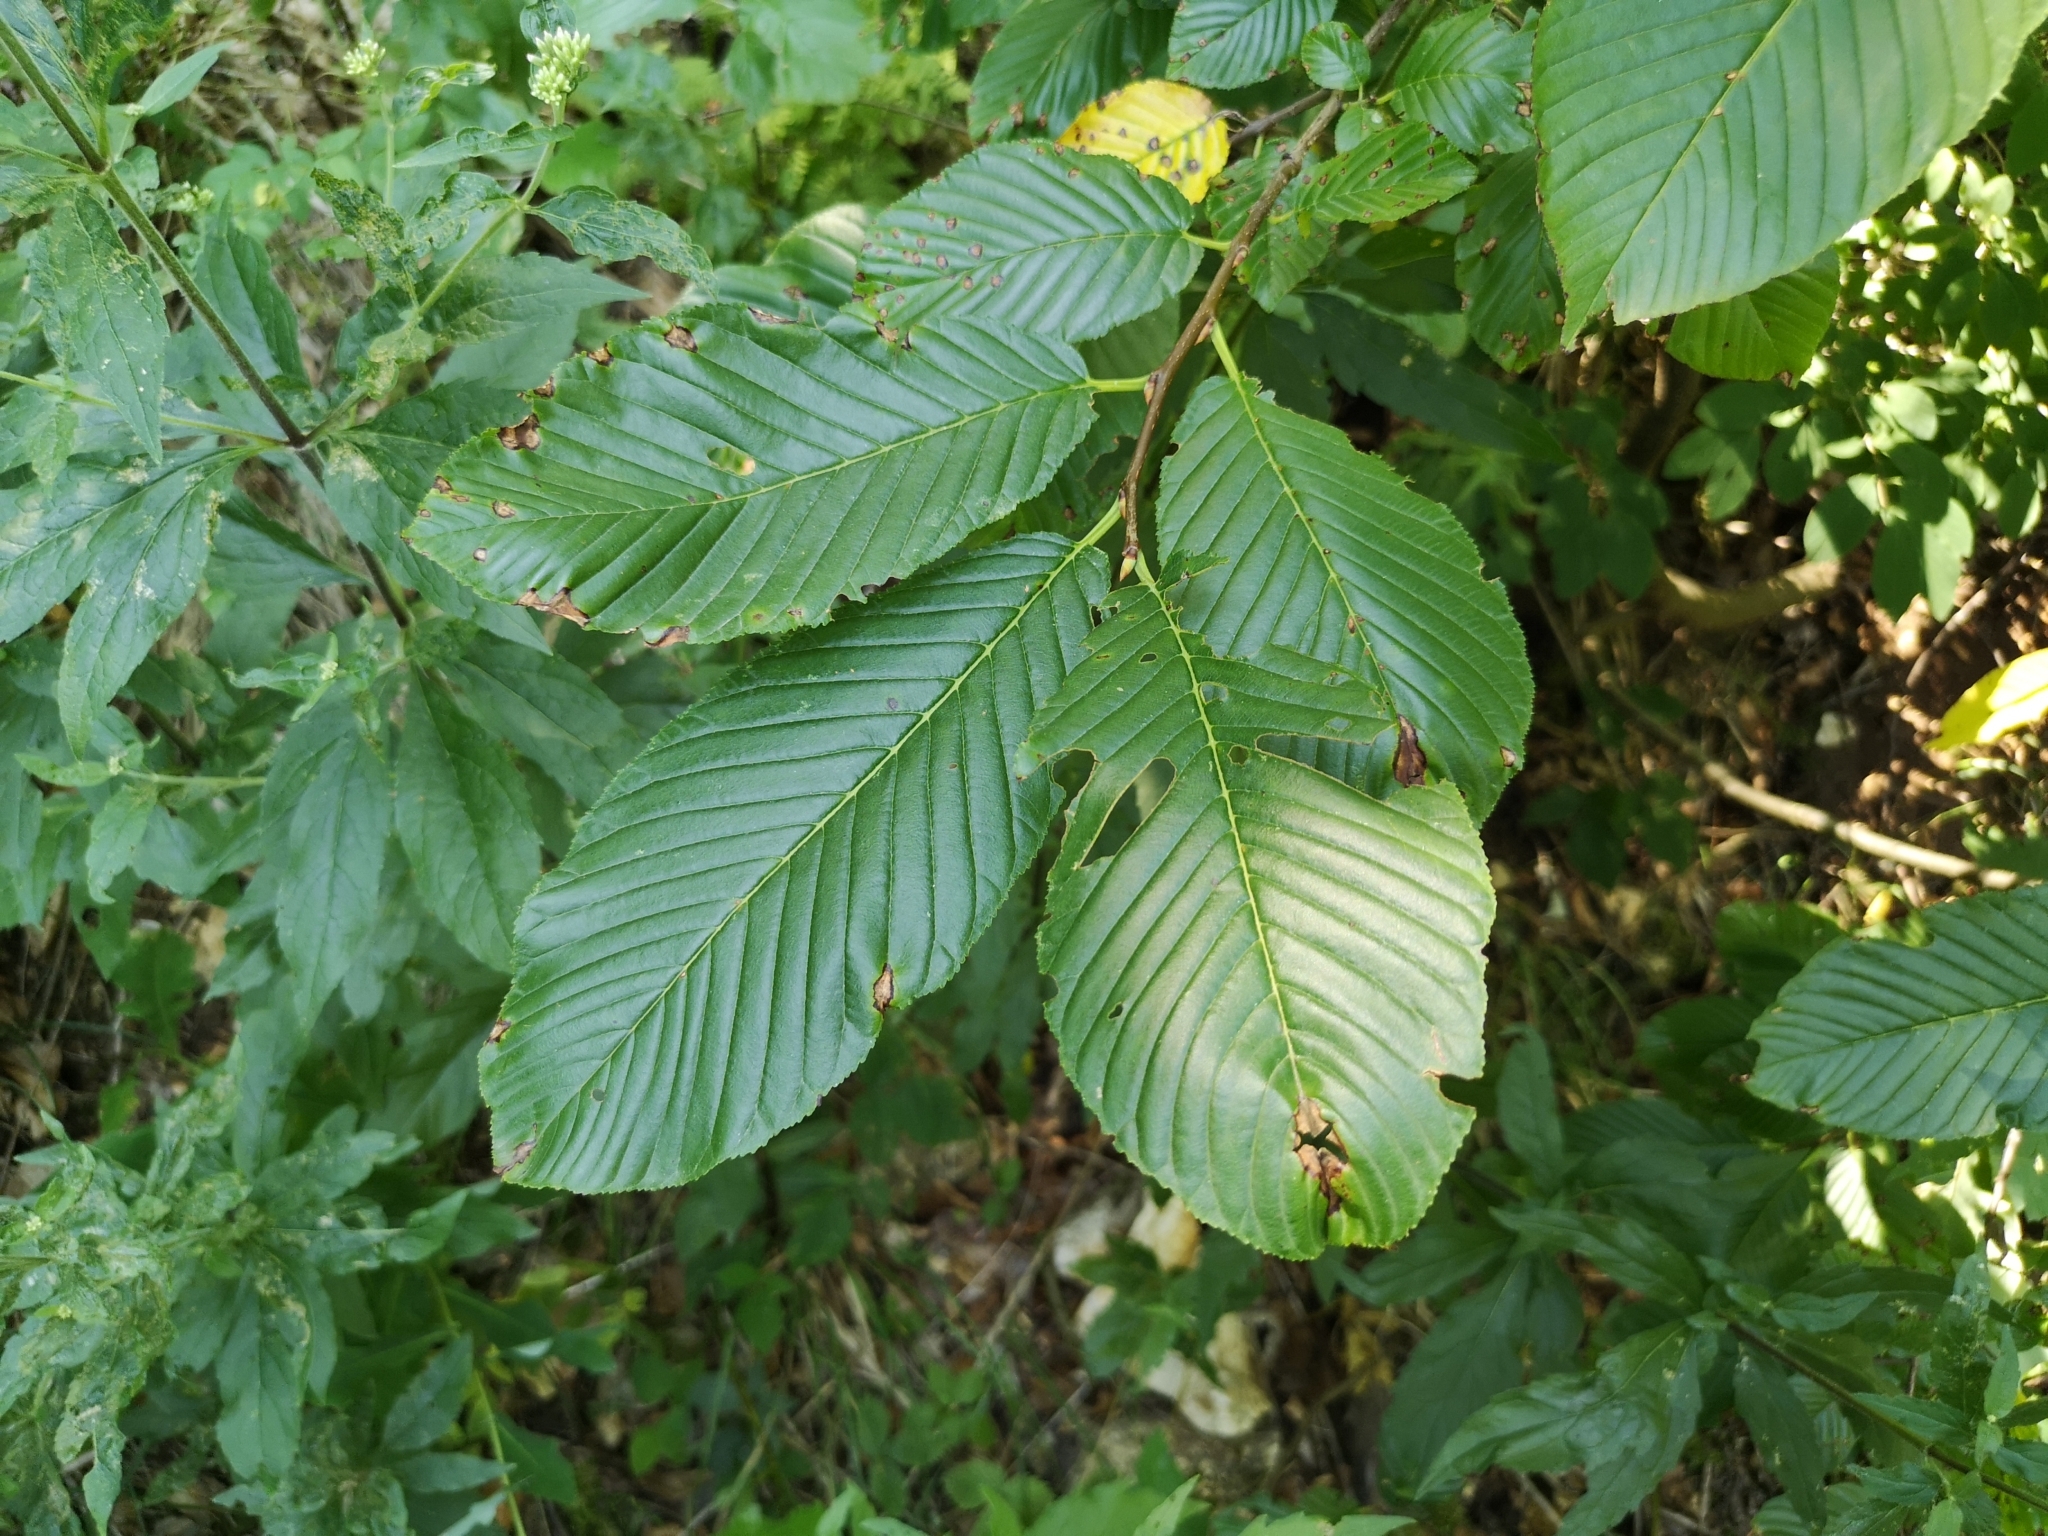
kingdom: Plantae
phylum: Tracheophyta
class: Magnoliopsida
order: Rosales
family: Rhamnaceae
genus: Atadinus
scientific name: Atadinus fallax
